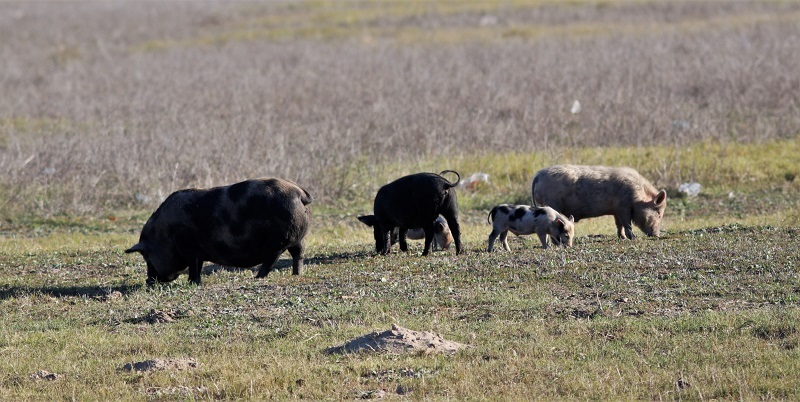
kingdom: Animalia
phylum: Chordata
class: Mammalia
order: Artiodactyla
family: Suidae
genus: Sus
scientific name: Sus scrofa
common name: Wild boar
